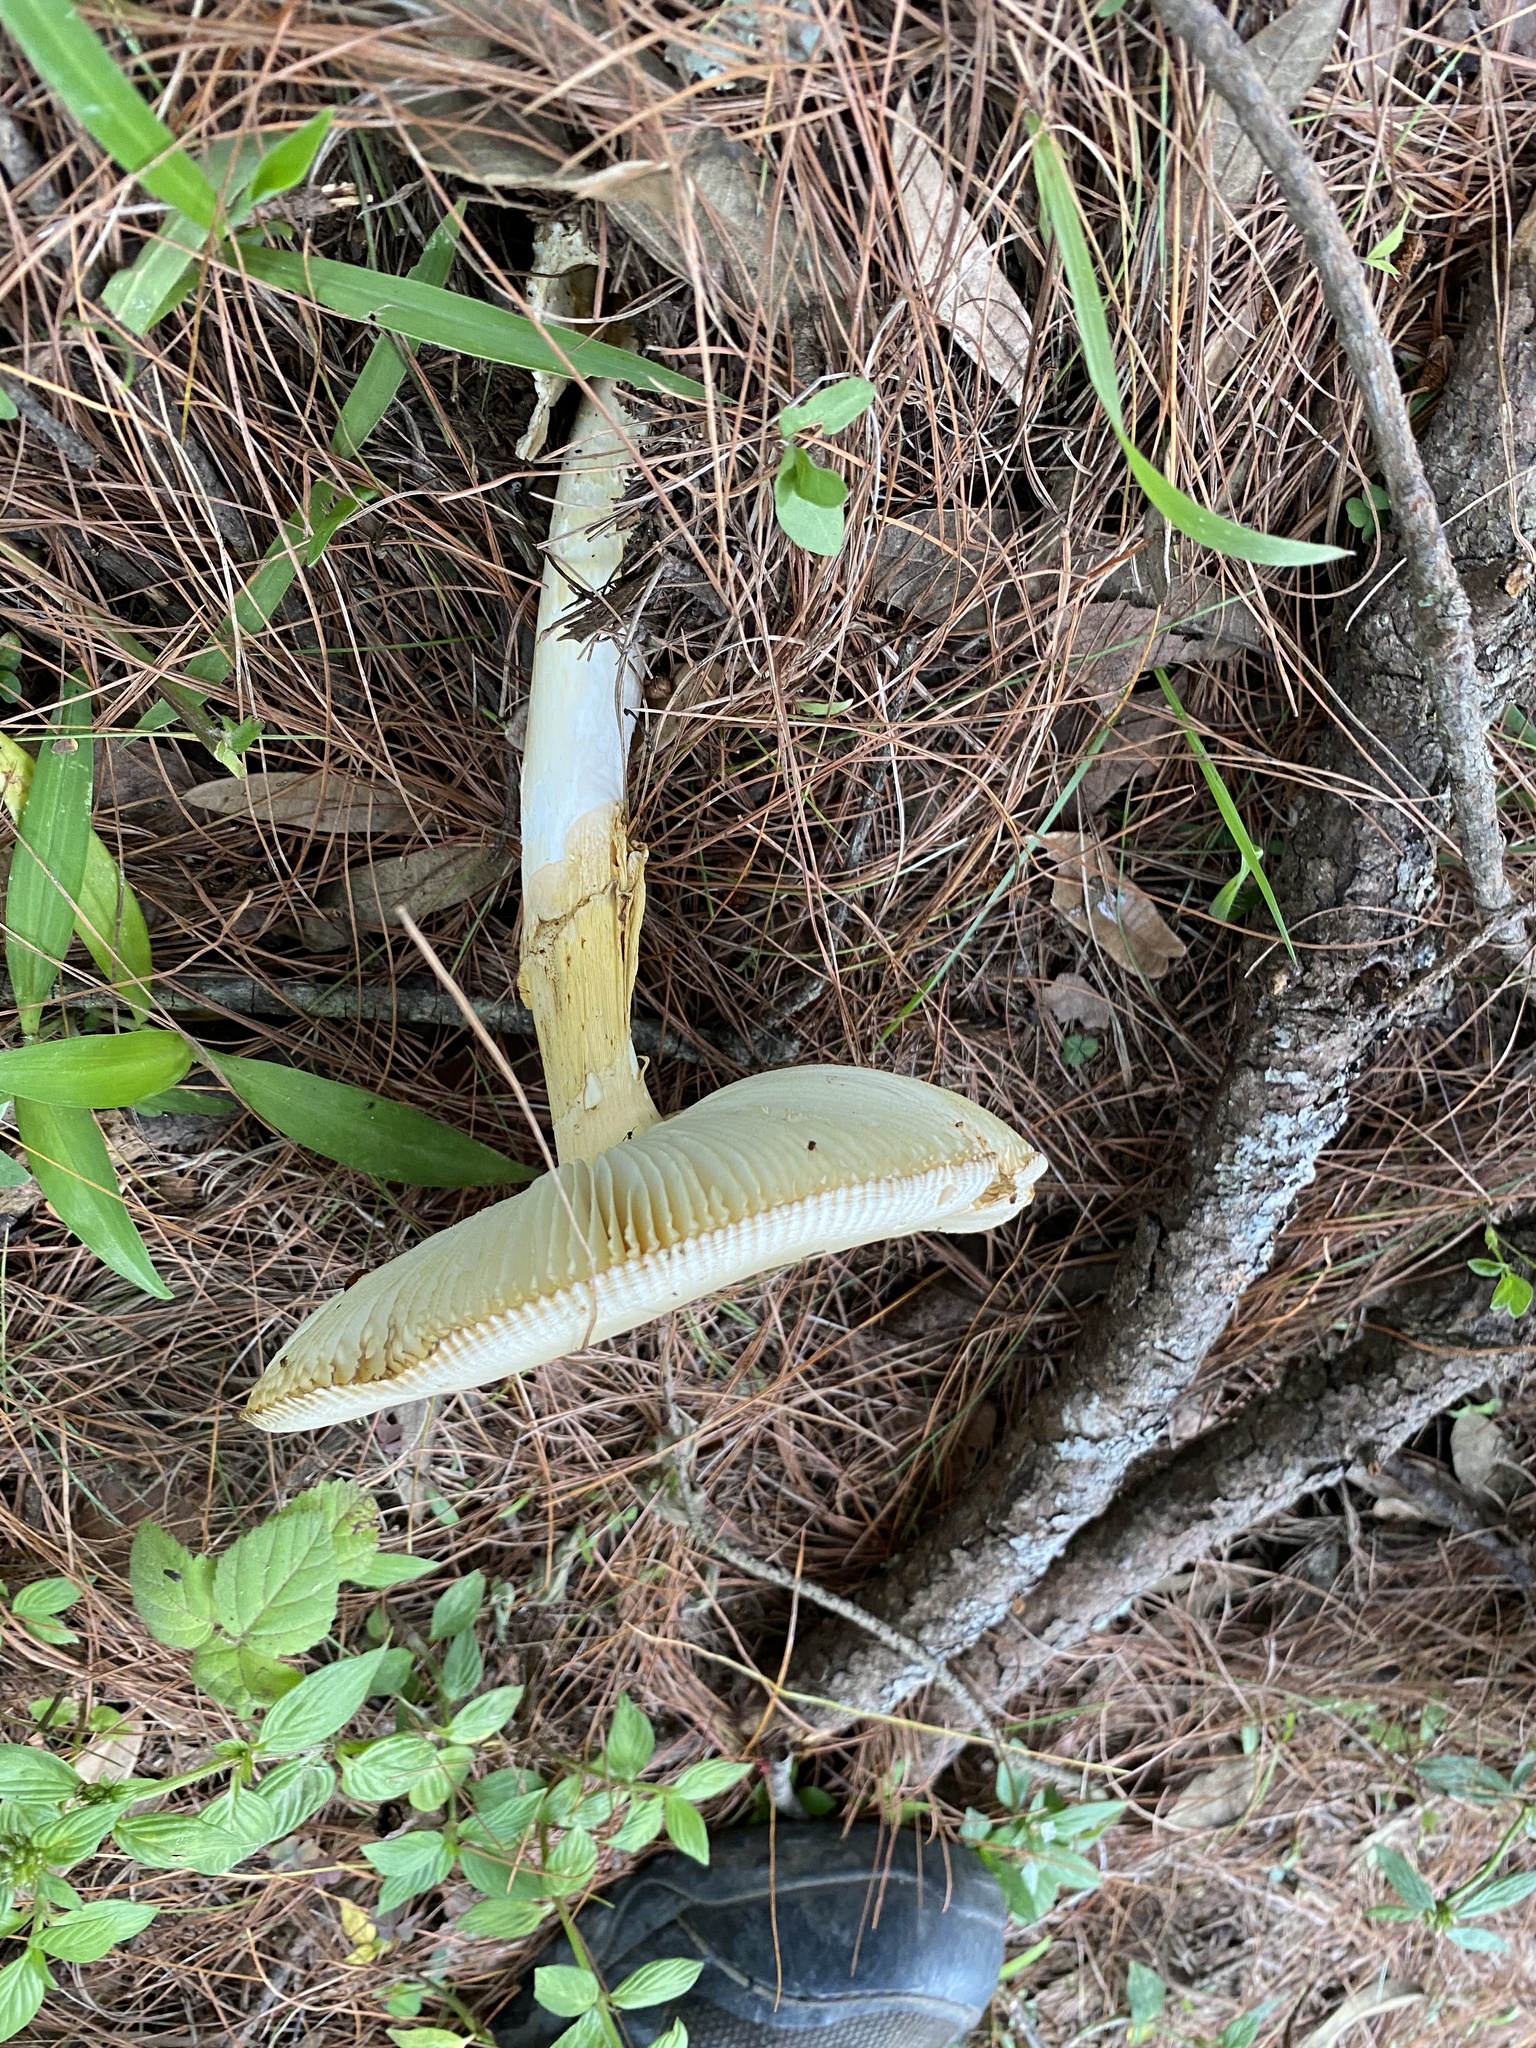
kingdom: Fungi
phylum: Basidiomycota
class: Agaricomycetes
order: Agaricales
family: Amanitaceae
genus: Amanita
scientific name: Amanita basii
